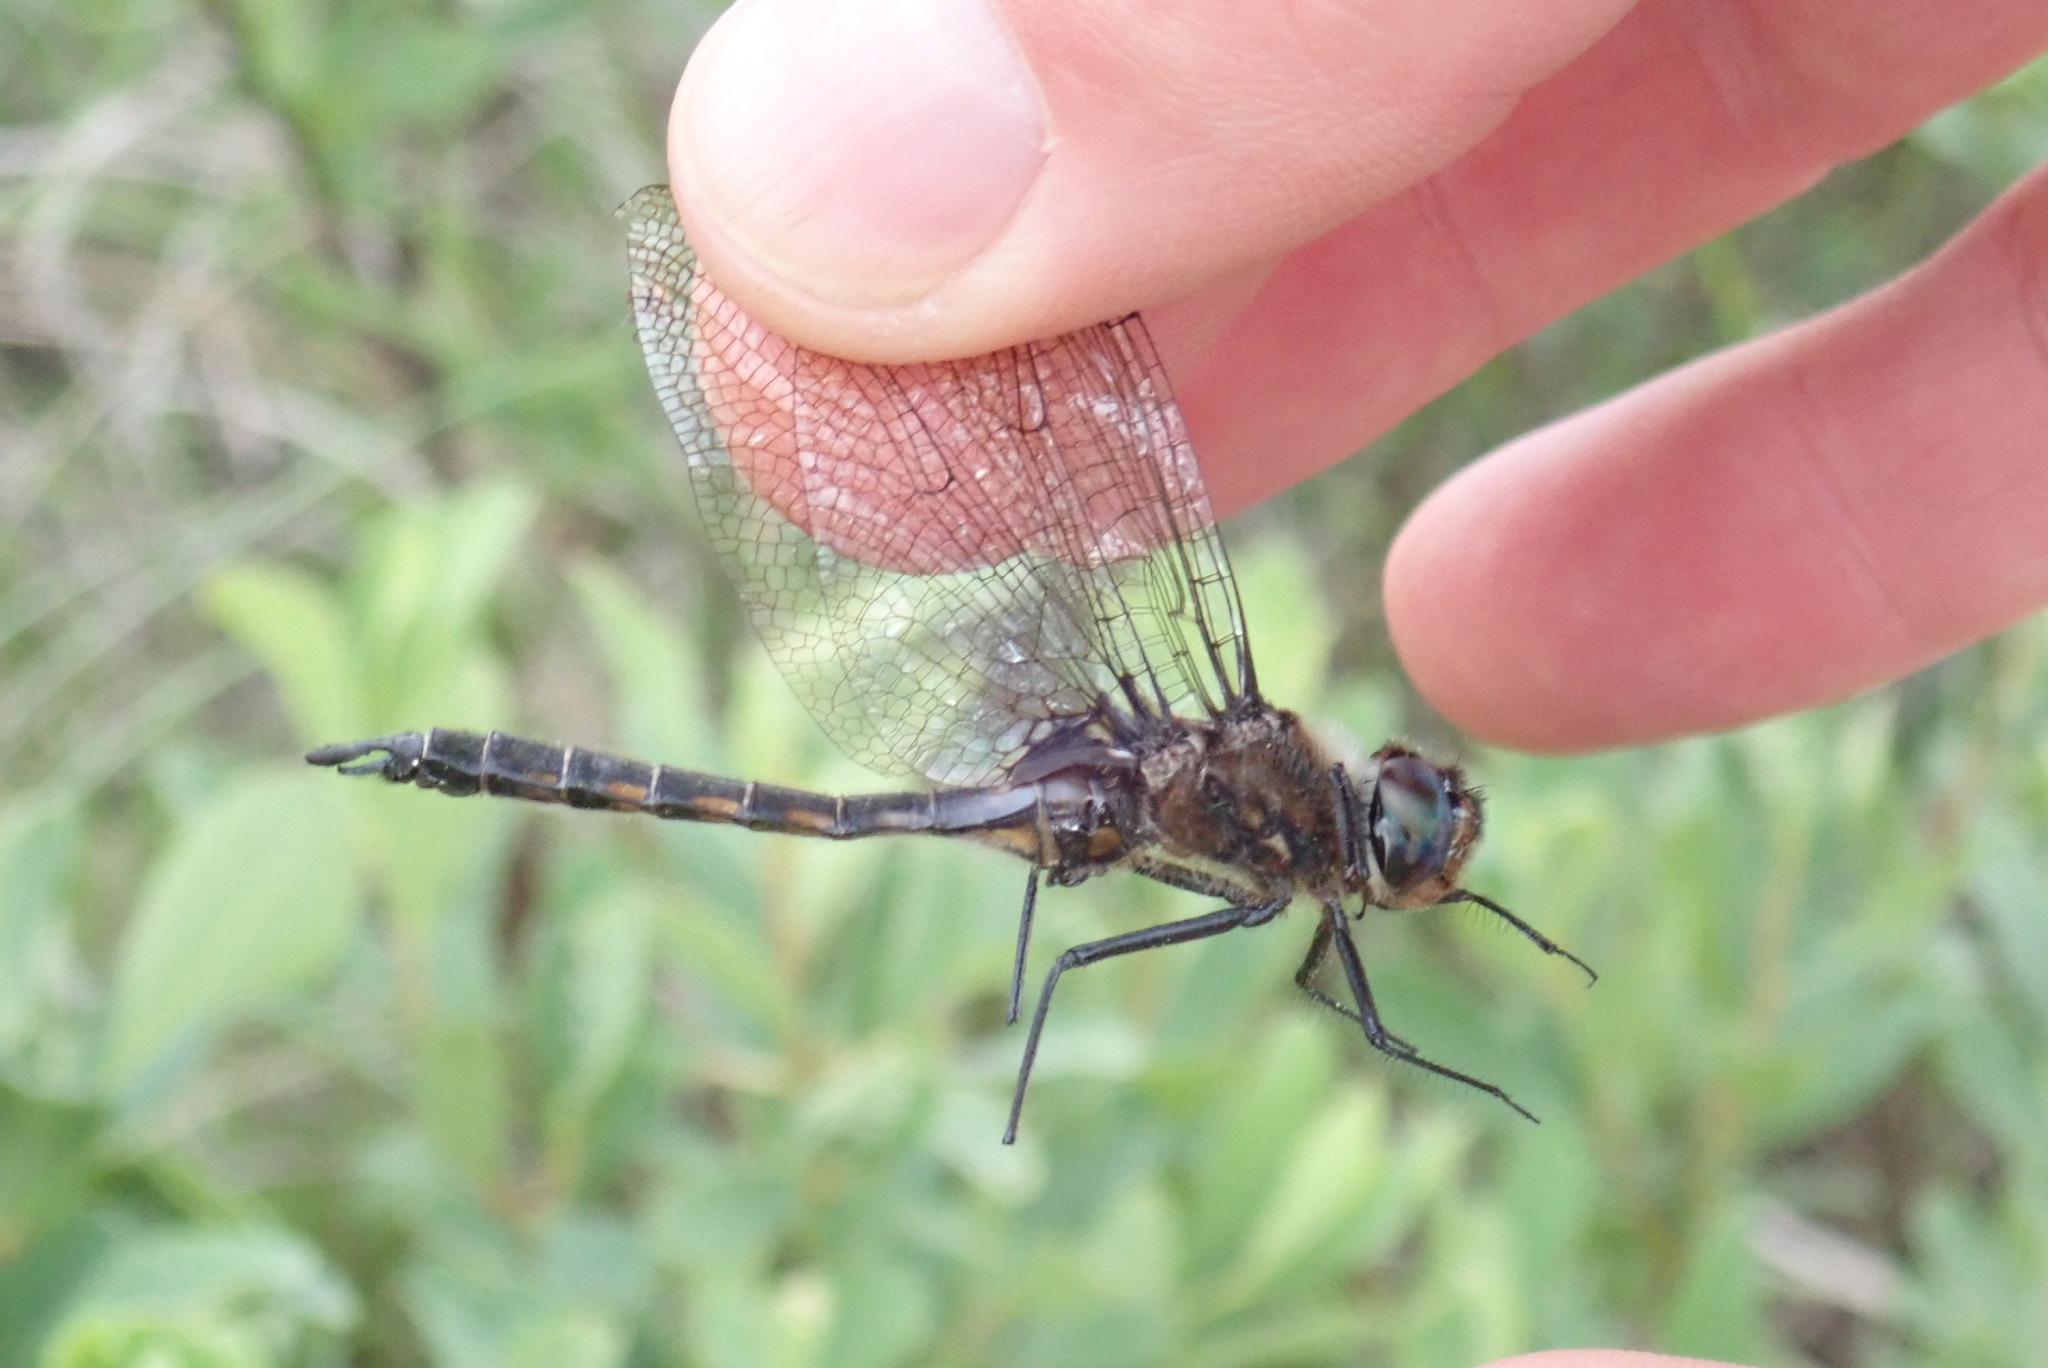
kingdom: Animalia
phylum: Arthropoda
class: Insecta
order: Odonata
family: Corduliidae
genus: Epitheca
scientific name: Epitheca spinigera
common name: Spiny baskettail
